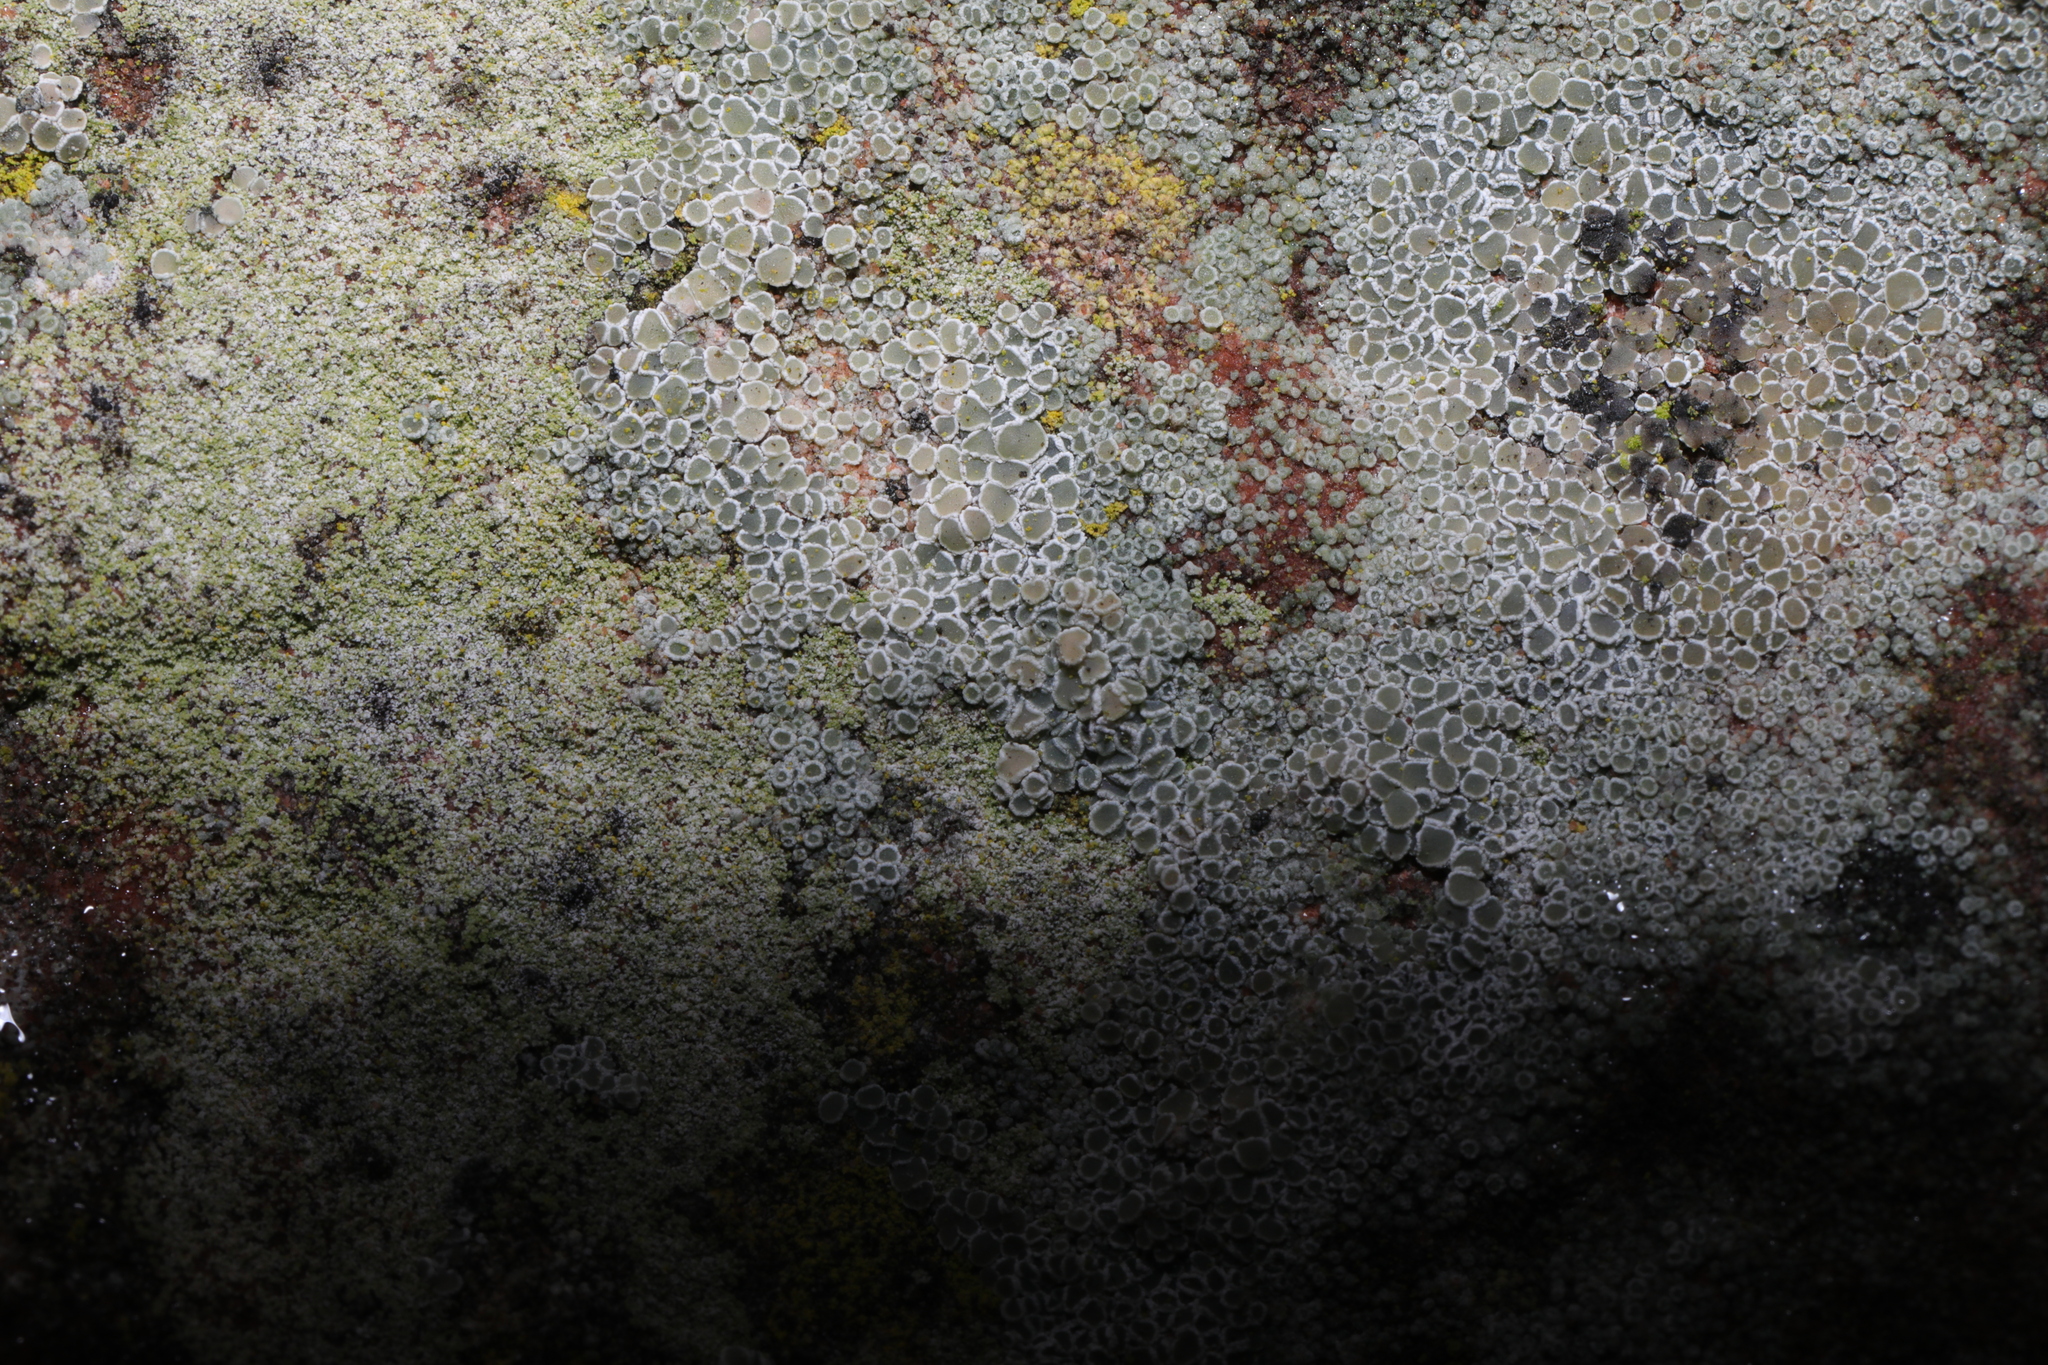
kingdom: Fungi
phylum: Ascomycota
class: Lecanoromycetes
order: Lecanorales
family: Lecanoraceae
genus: Polyozosia
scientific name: Polyozosia dispersa
